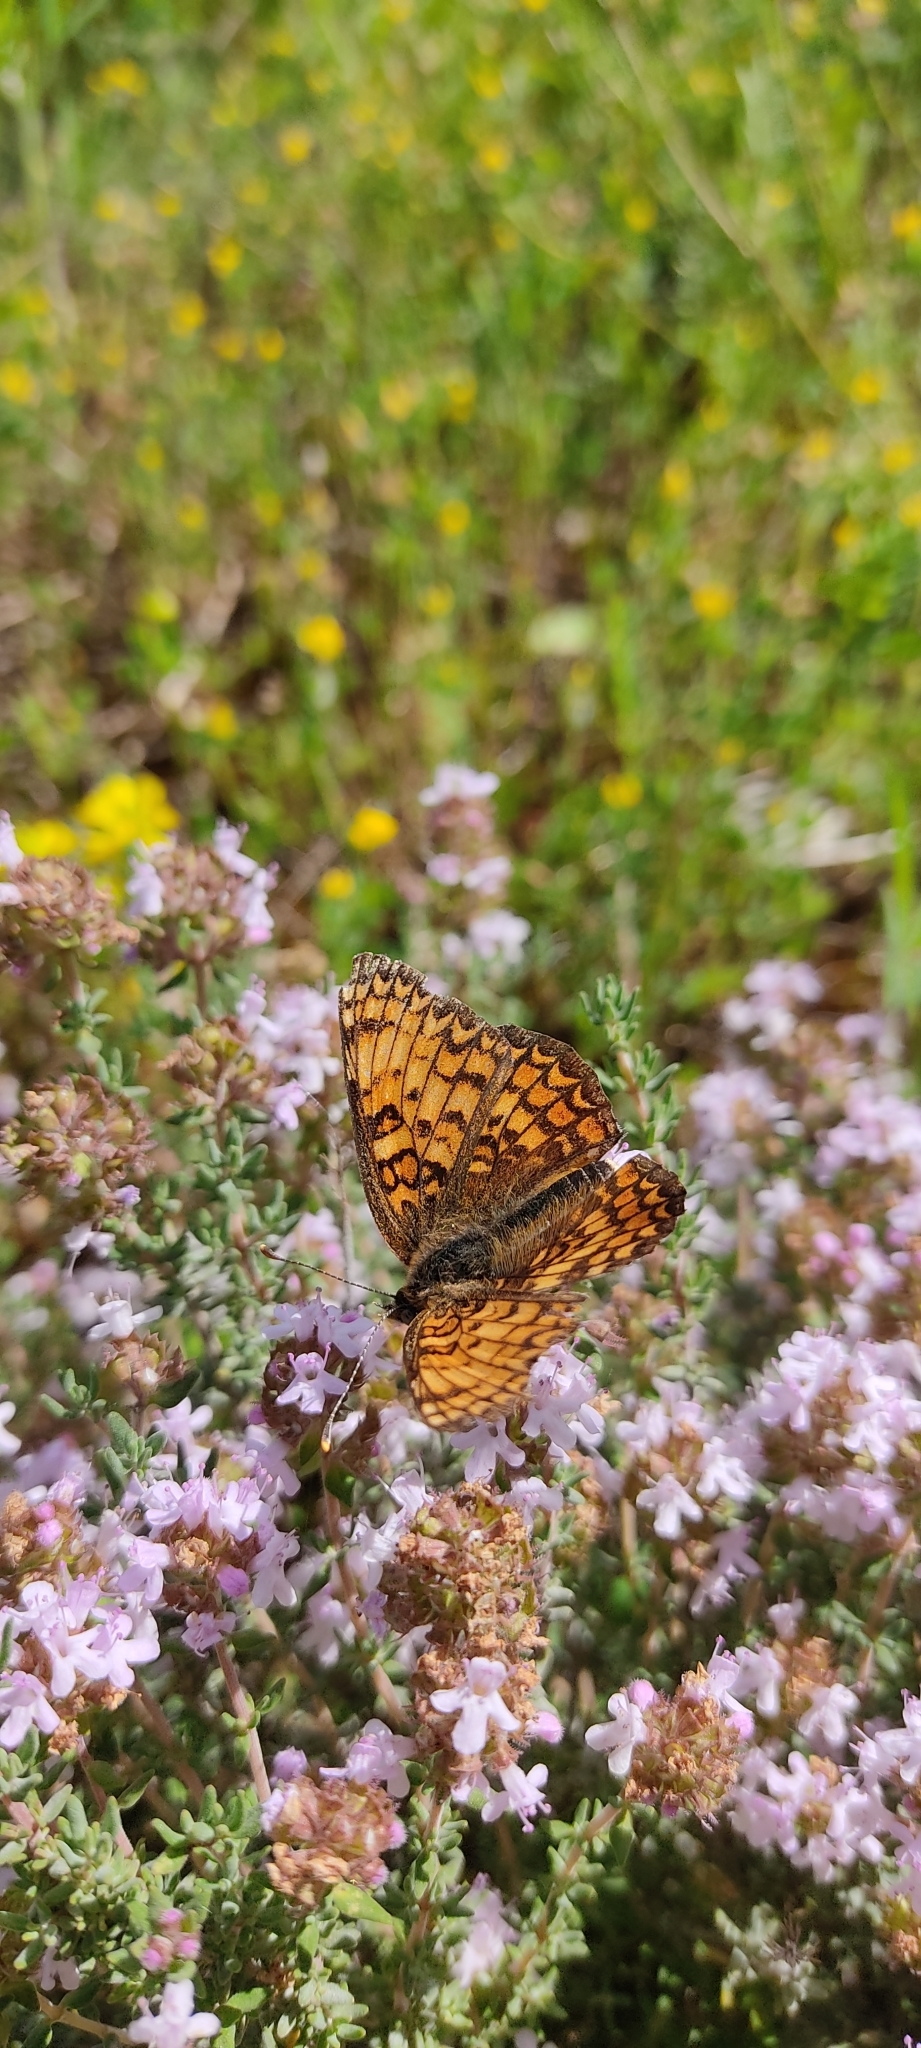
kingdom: Animalia
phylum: Arthropoda
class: Insecta
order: Lepidoptera
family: Nymphalidae
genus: Melitaea
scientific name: Melitaea phoebe
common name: Knapweed fritillary
